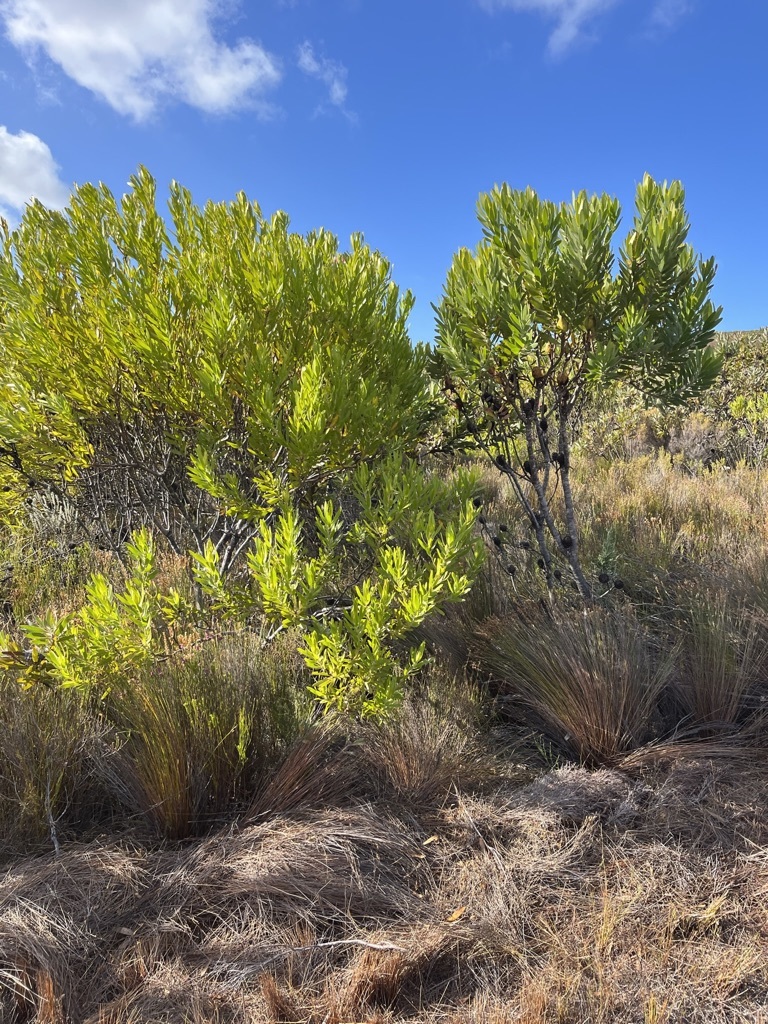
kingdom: Plantae
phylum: Tracheophyta
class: Magnoliopsida
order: Proteales
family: Proteaceae
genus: Leucadendron
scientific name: Leucadendron laureolum
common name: Golden sunshinebush
